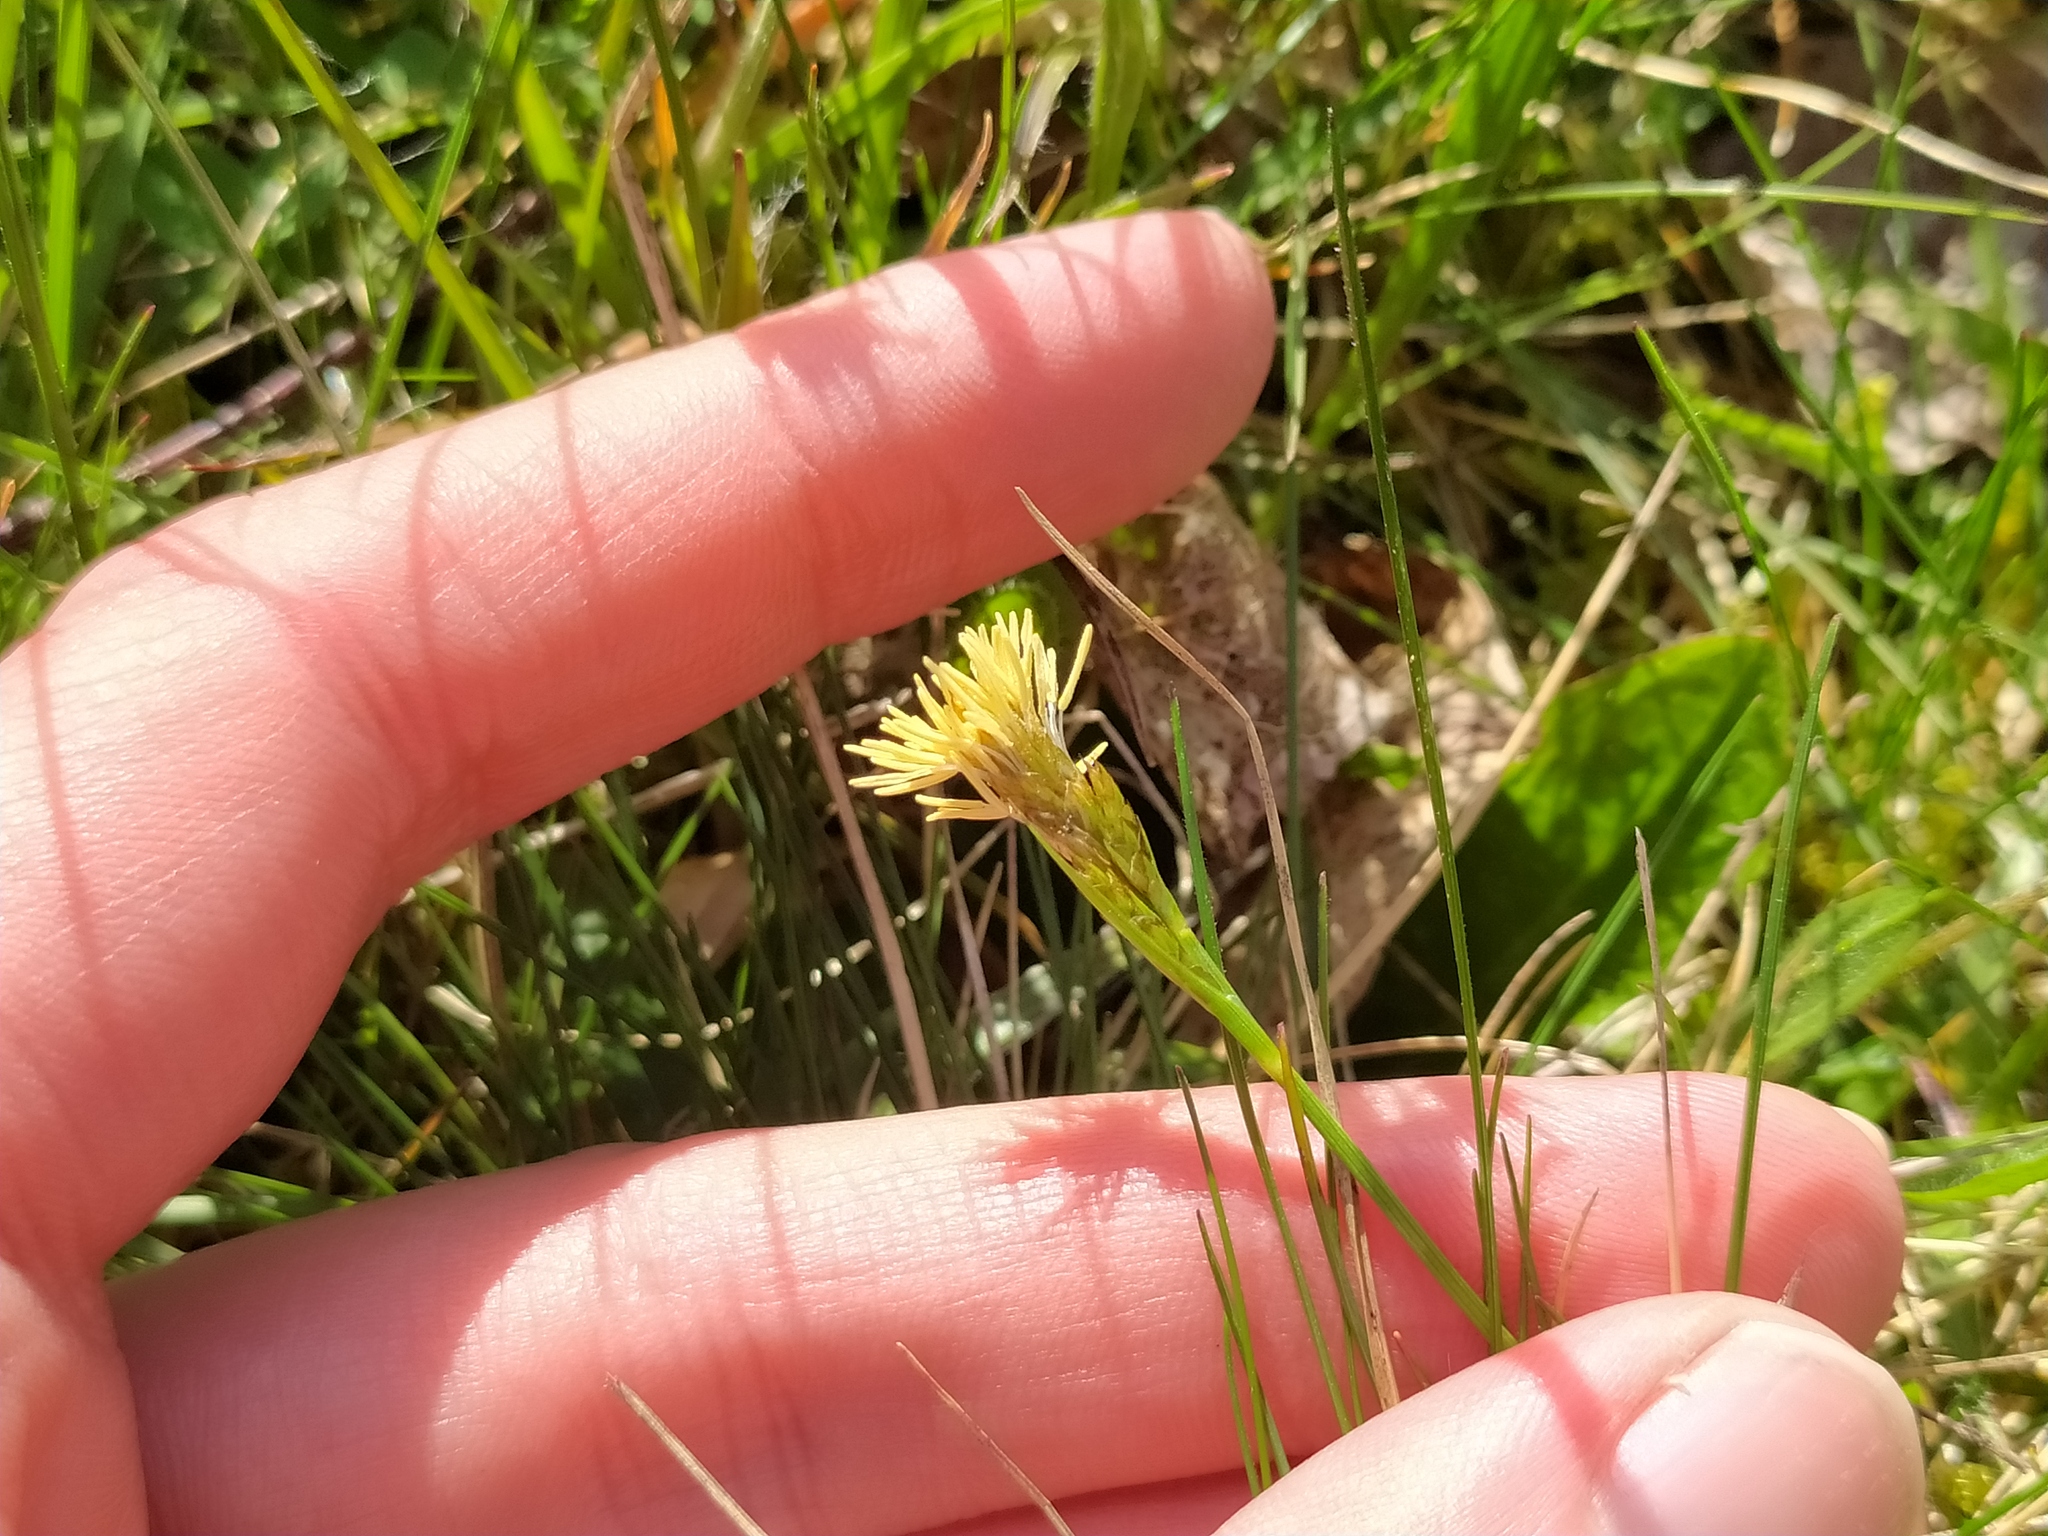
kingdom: Plantae
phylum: Tracheophyta
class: Liliopsida
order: Poales
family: Cyperaceae
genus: Carex
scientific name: Carex caryophyllea
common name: Spring sedge
